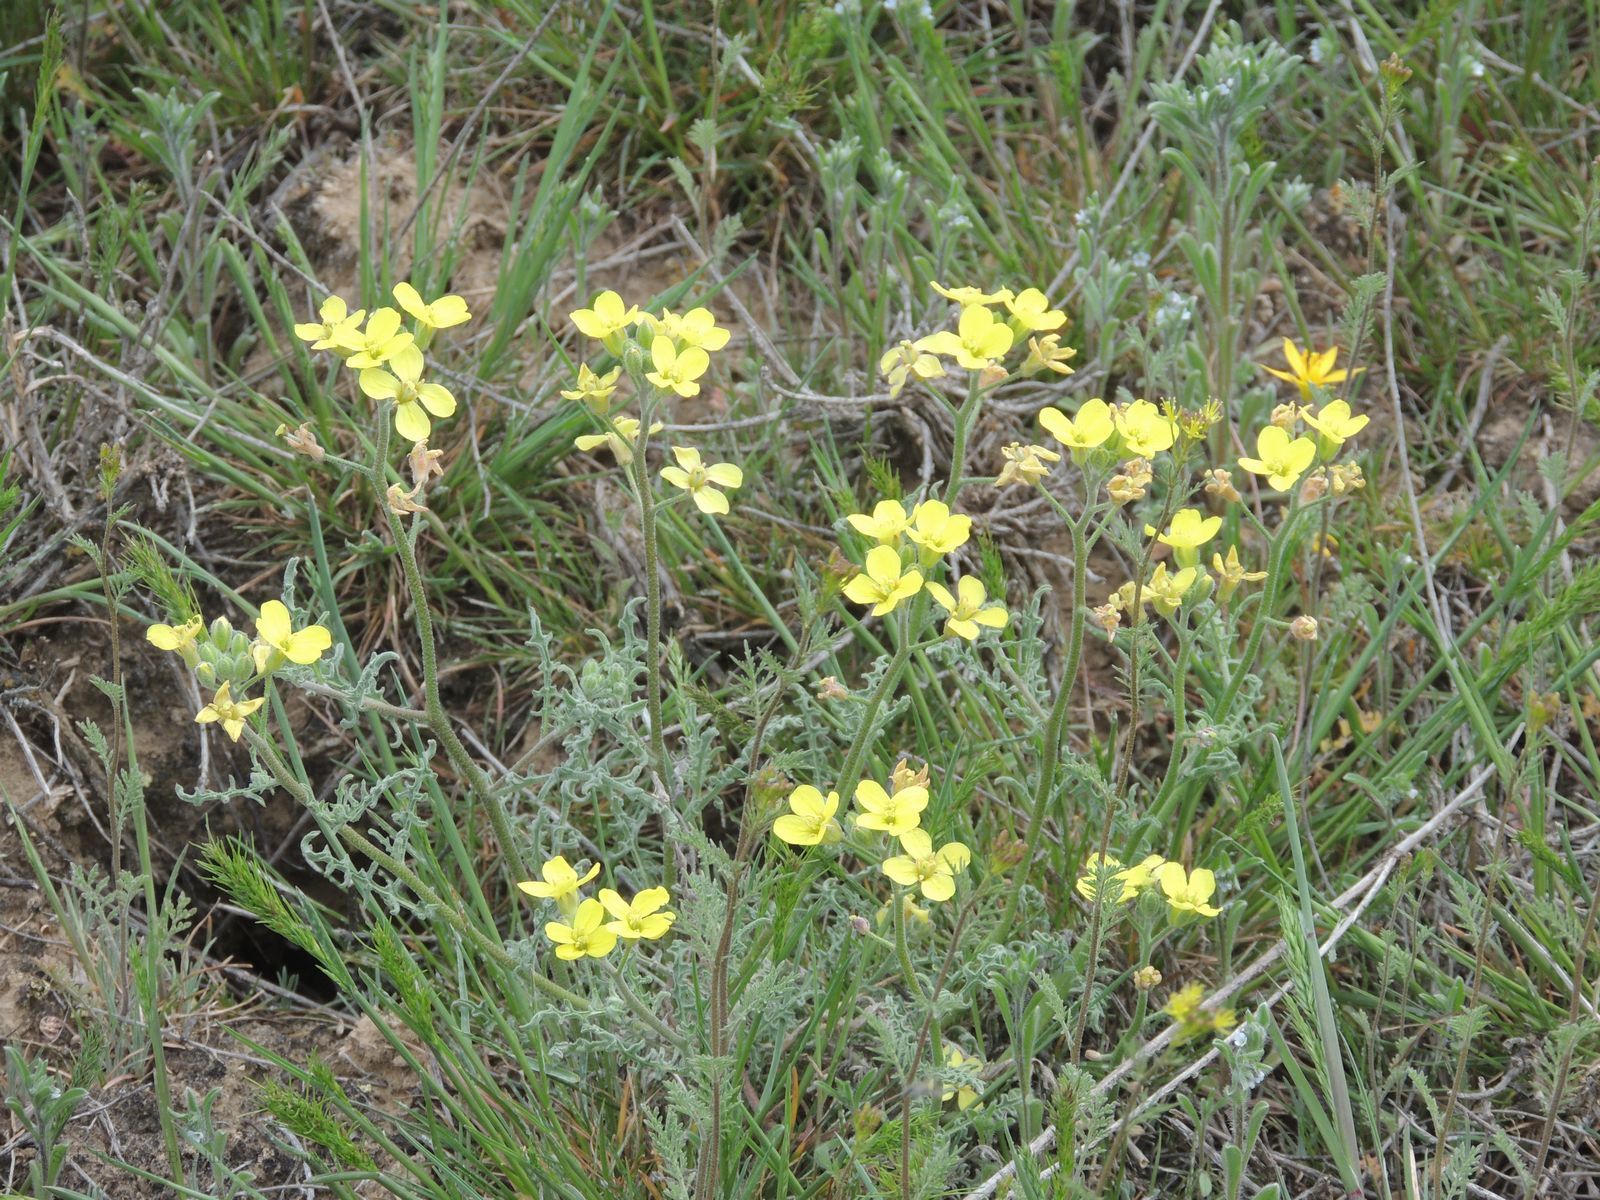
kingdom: Plantae
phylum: Tracheophyta
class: Magnoliopsida
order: Brassicales
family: Brassicaceae
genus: Sterigmostemum
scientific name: Sterigmostemum caspicum
